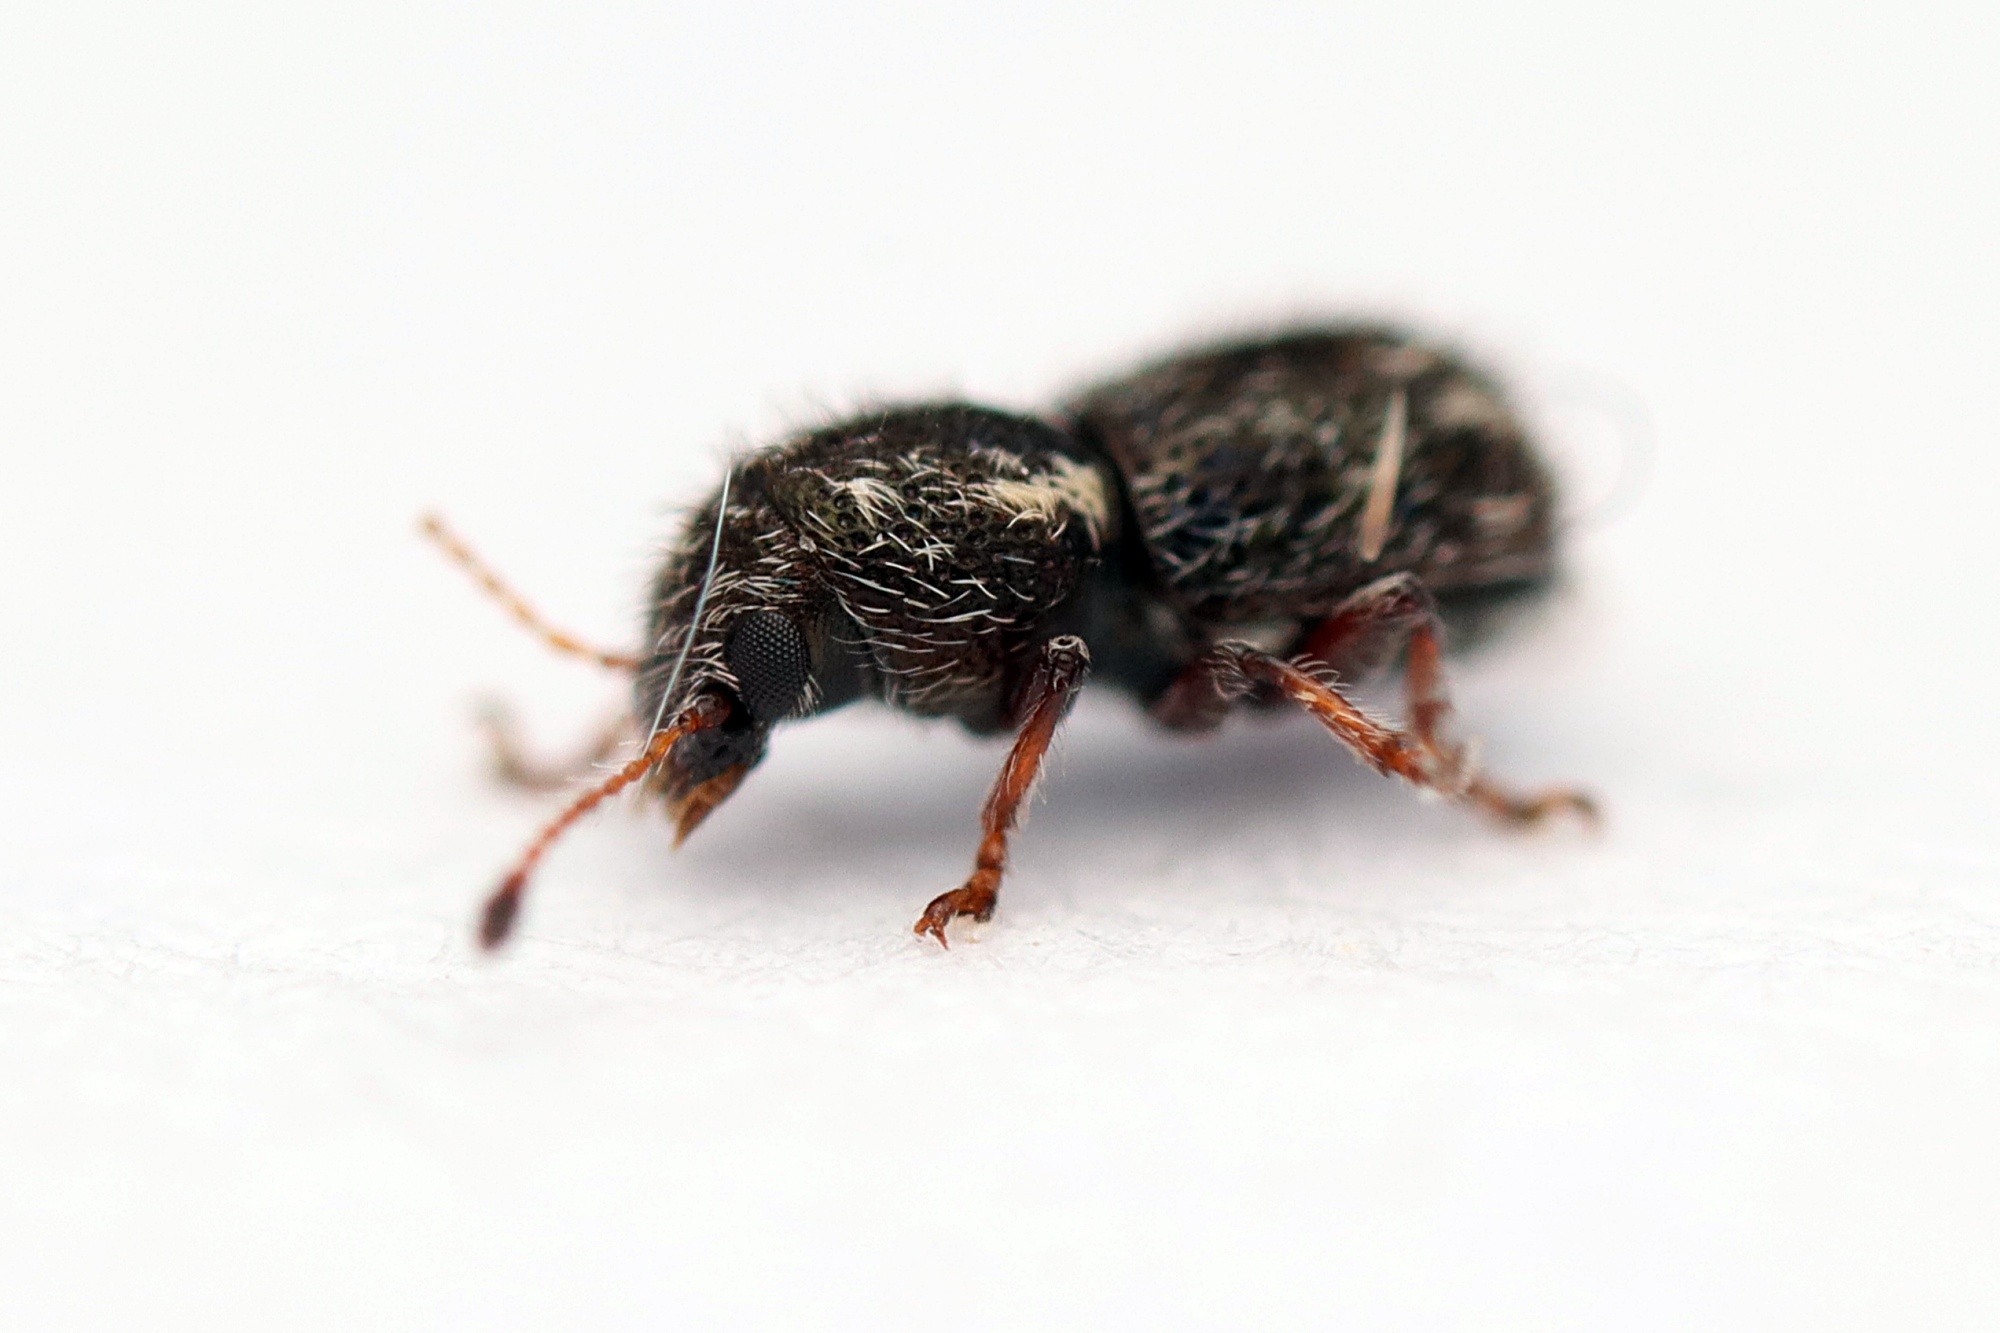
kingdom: Animalia
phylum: Arthropoda
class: Insecta
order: Coleoptera
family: Anthribidae
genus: Dasyanthribus
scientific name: Dasyanthribus purpureus
